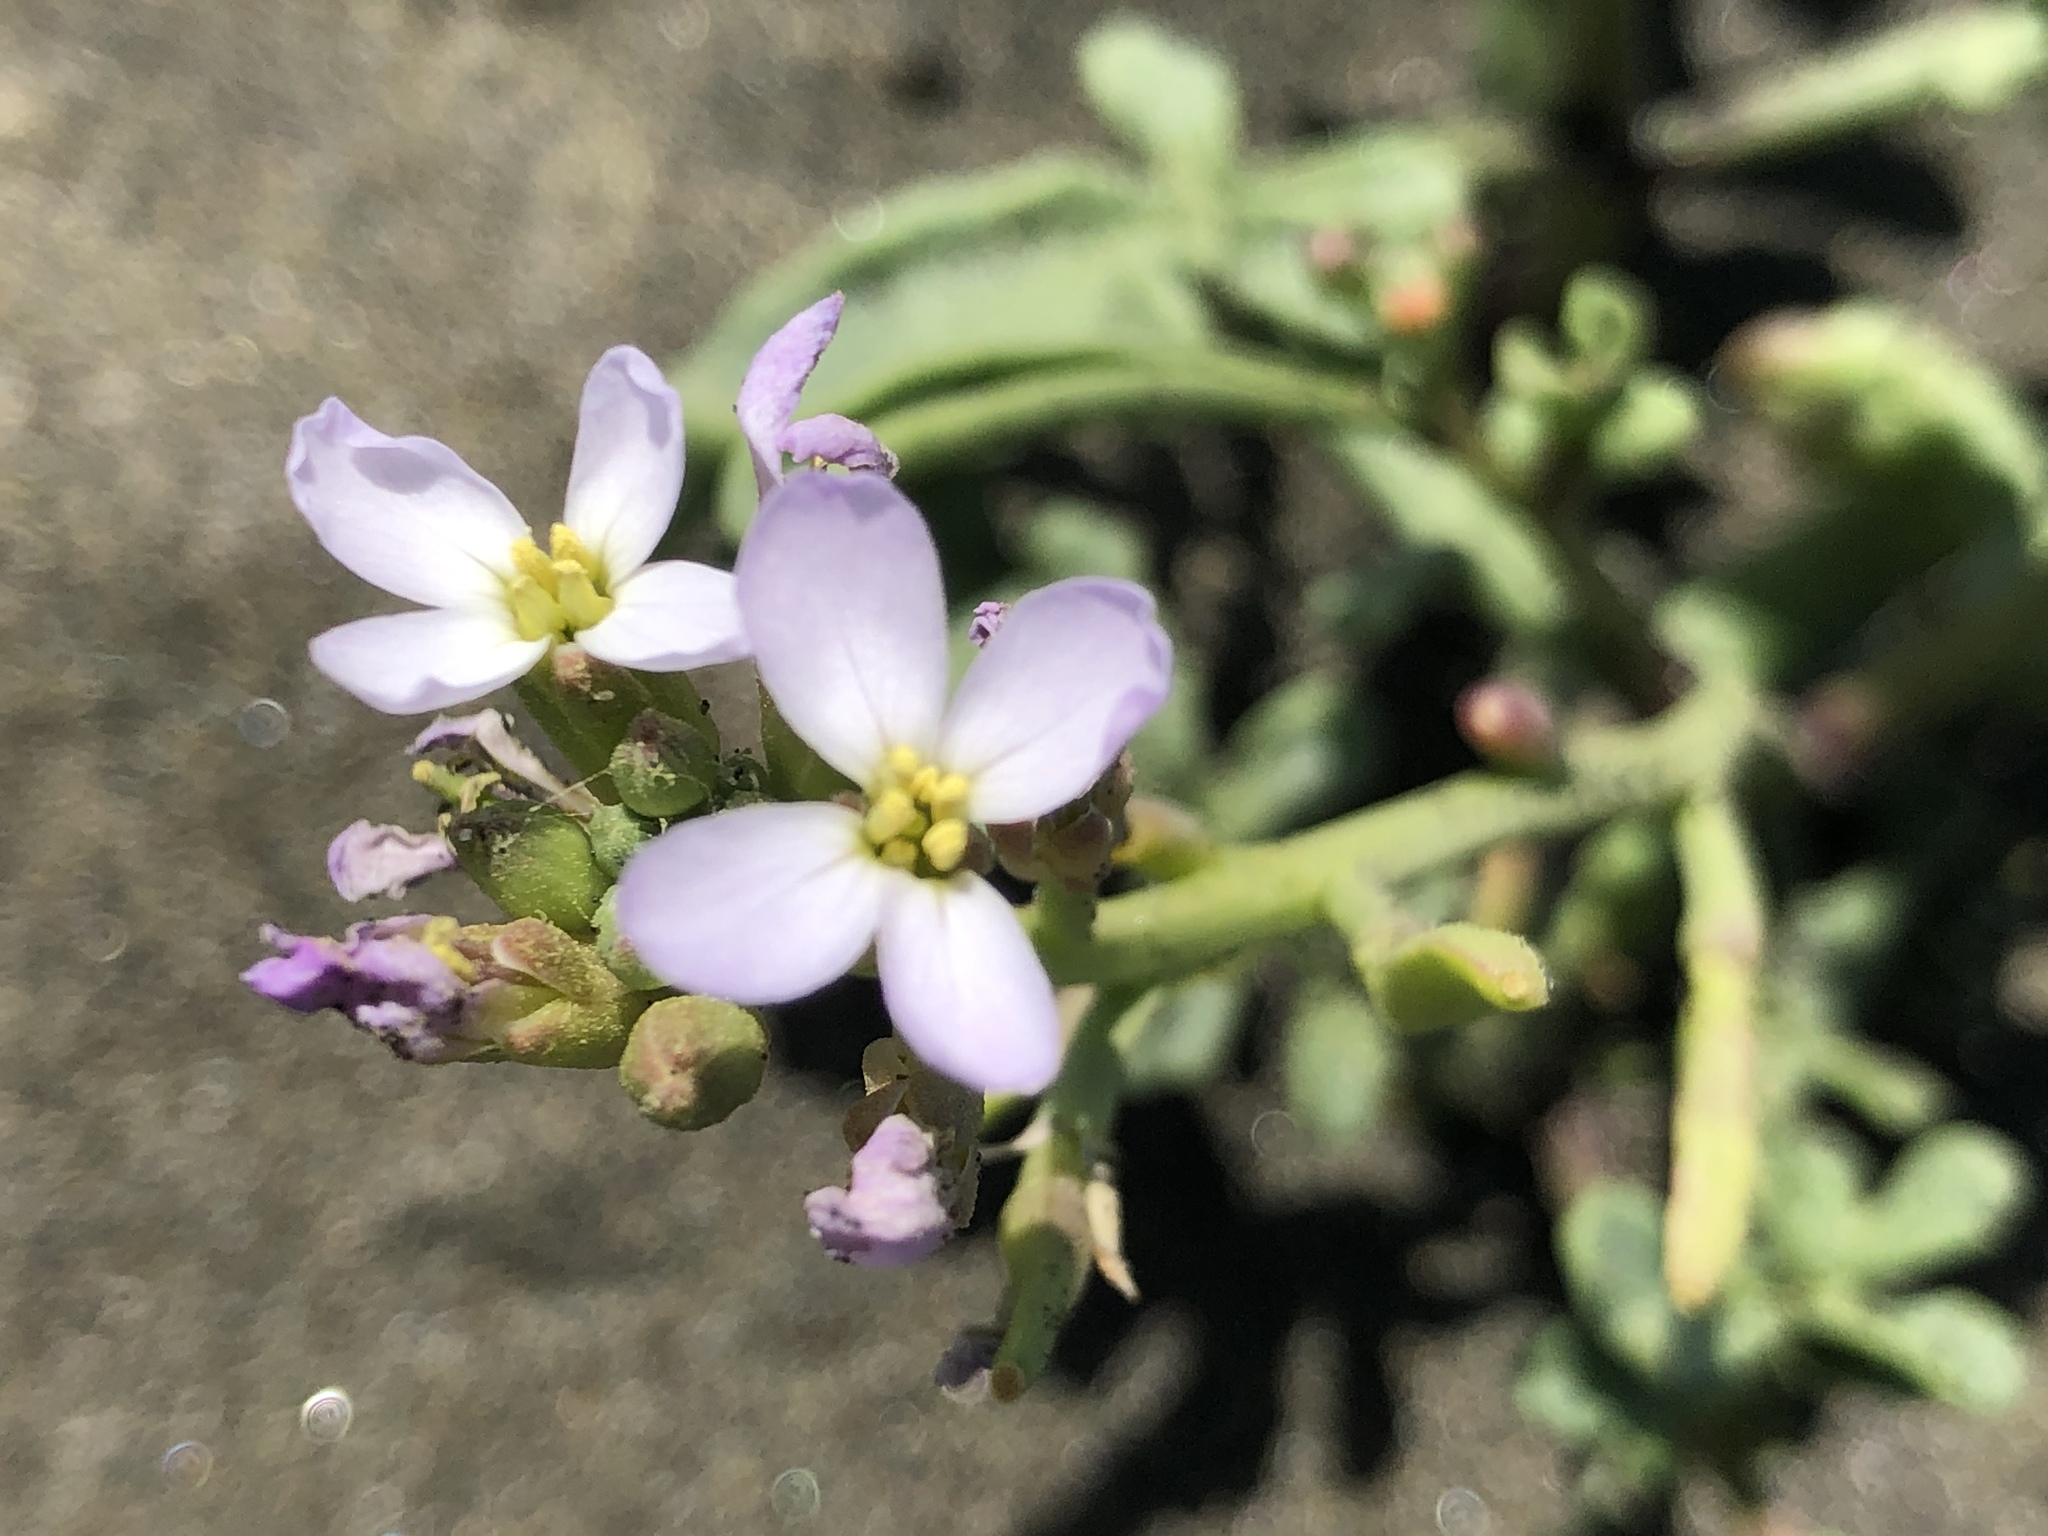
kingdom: Plantae
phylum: Tracheophyta
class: Magnoliopsida
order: Brassicales
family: Brassicaceae
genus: Cakile
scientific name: Cakile maritima
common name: Sea rocket
